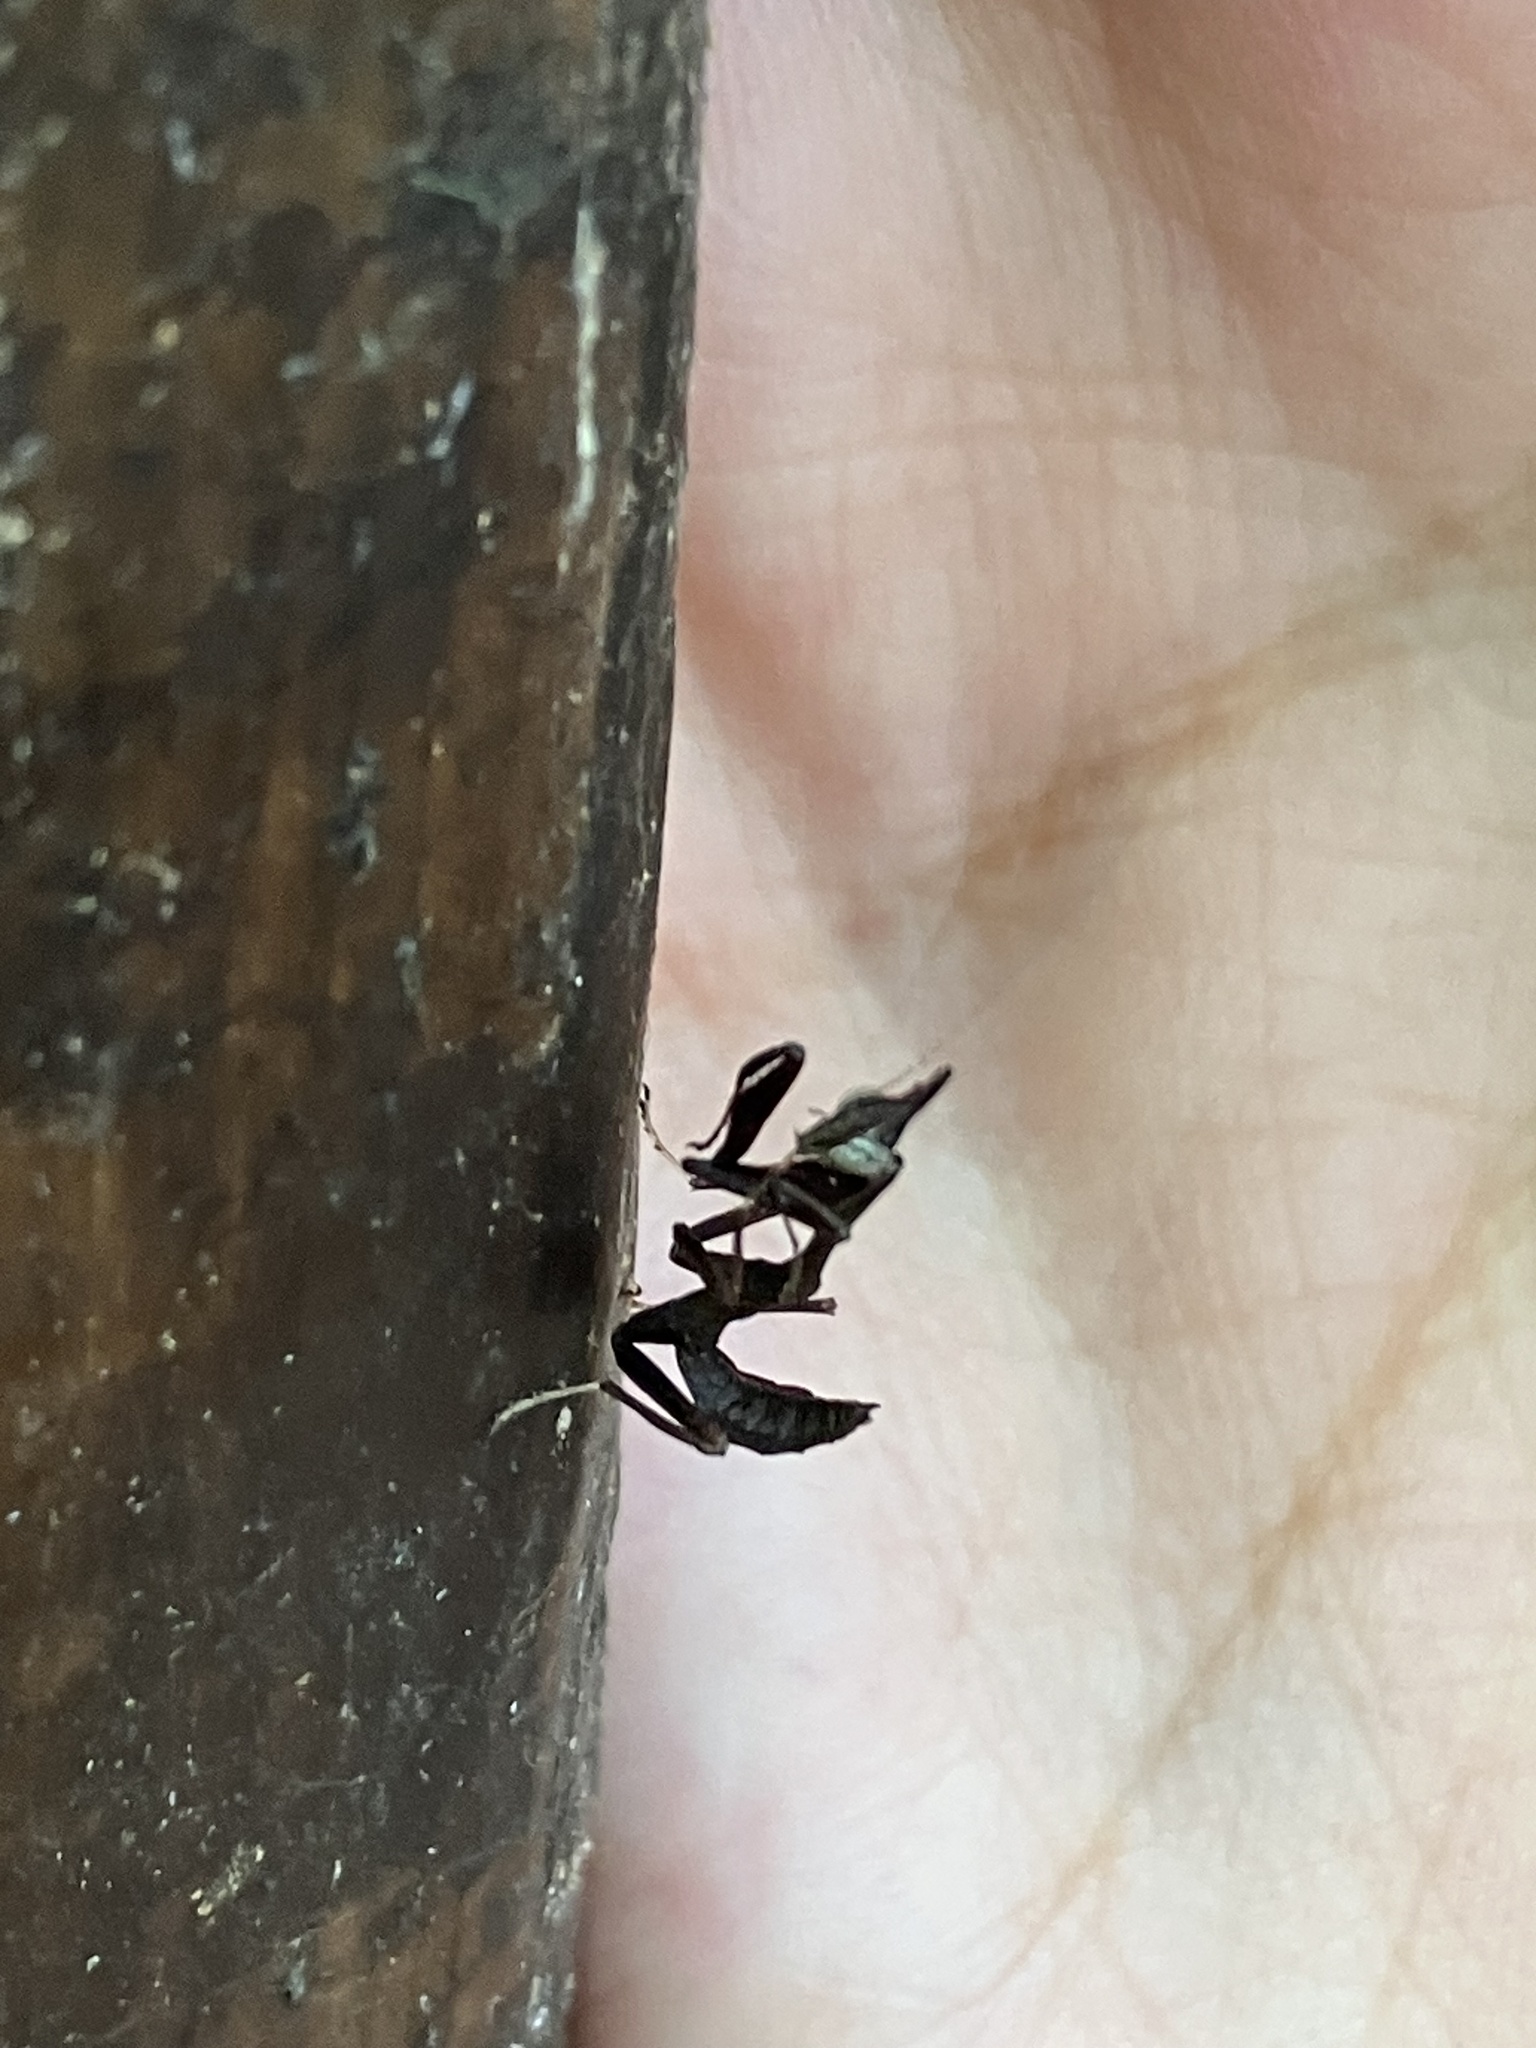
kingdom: Animalia
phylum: Arthropoda
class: Insecta
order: Mantodea
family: Hymenopodidae
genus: Phyllothelys
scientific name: Phyllothelys werneri
